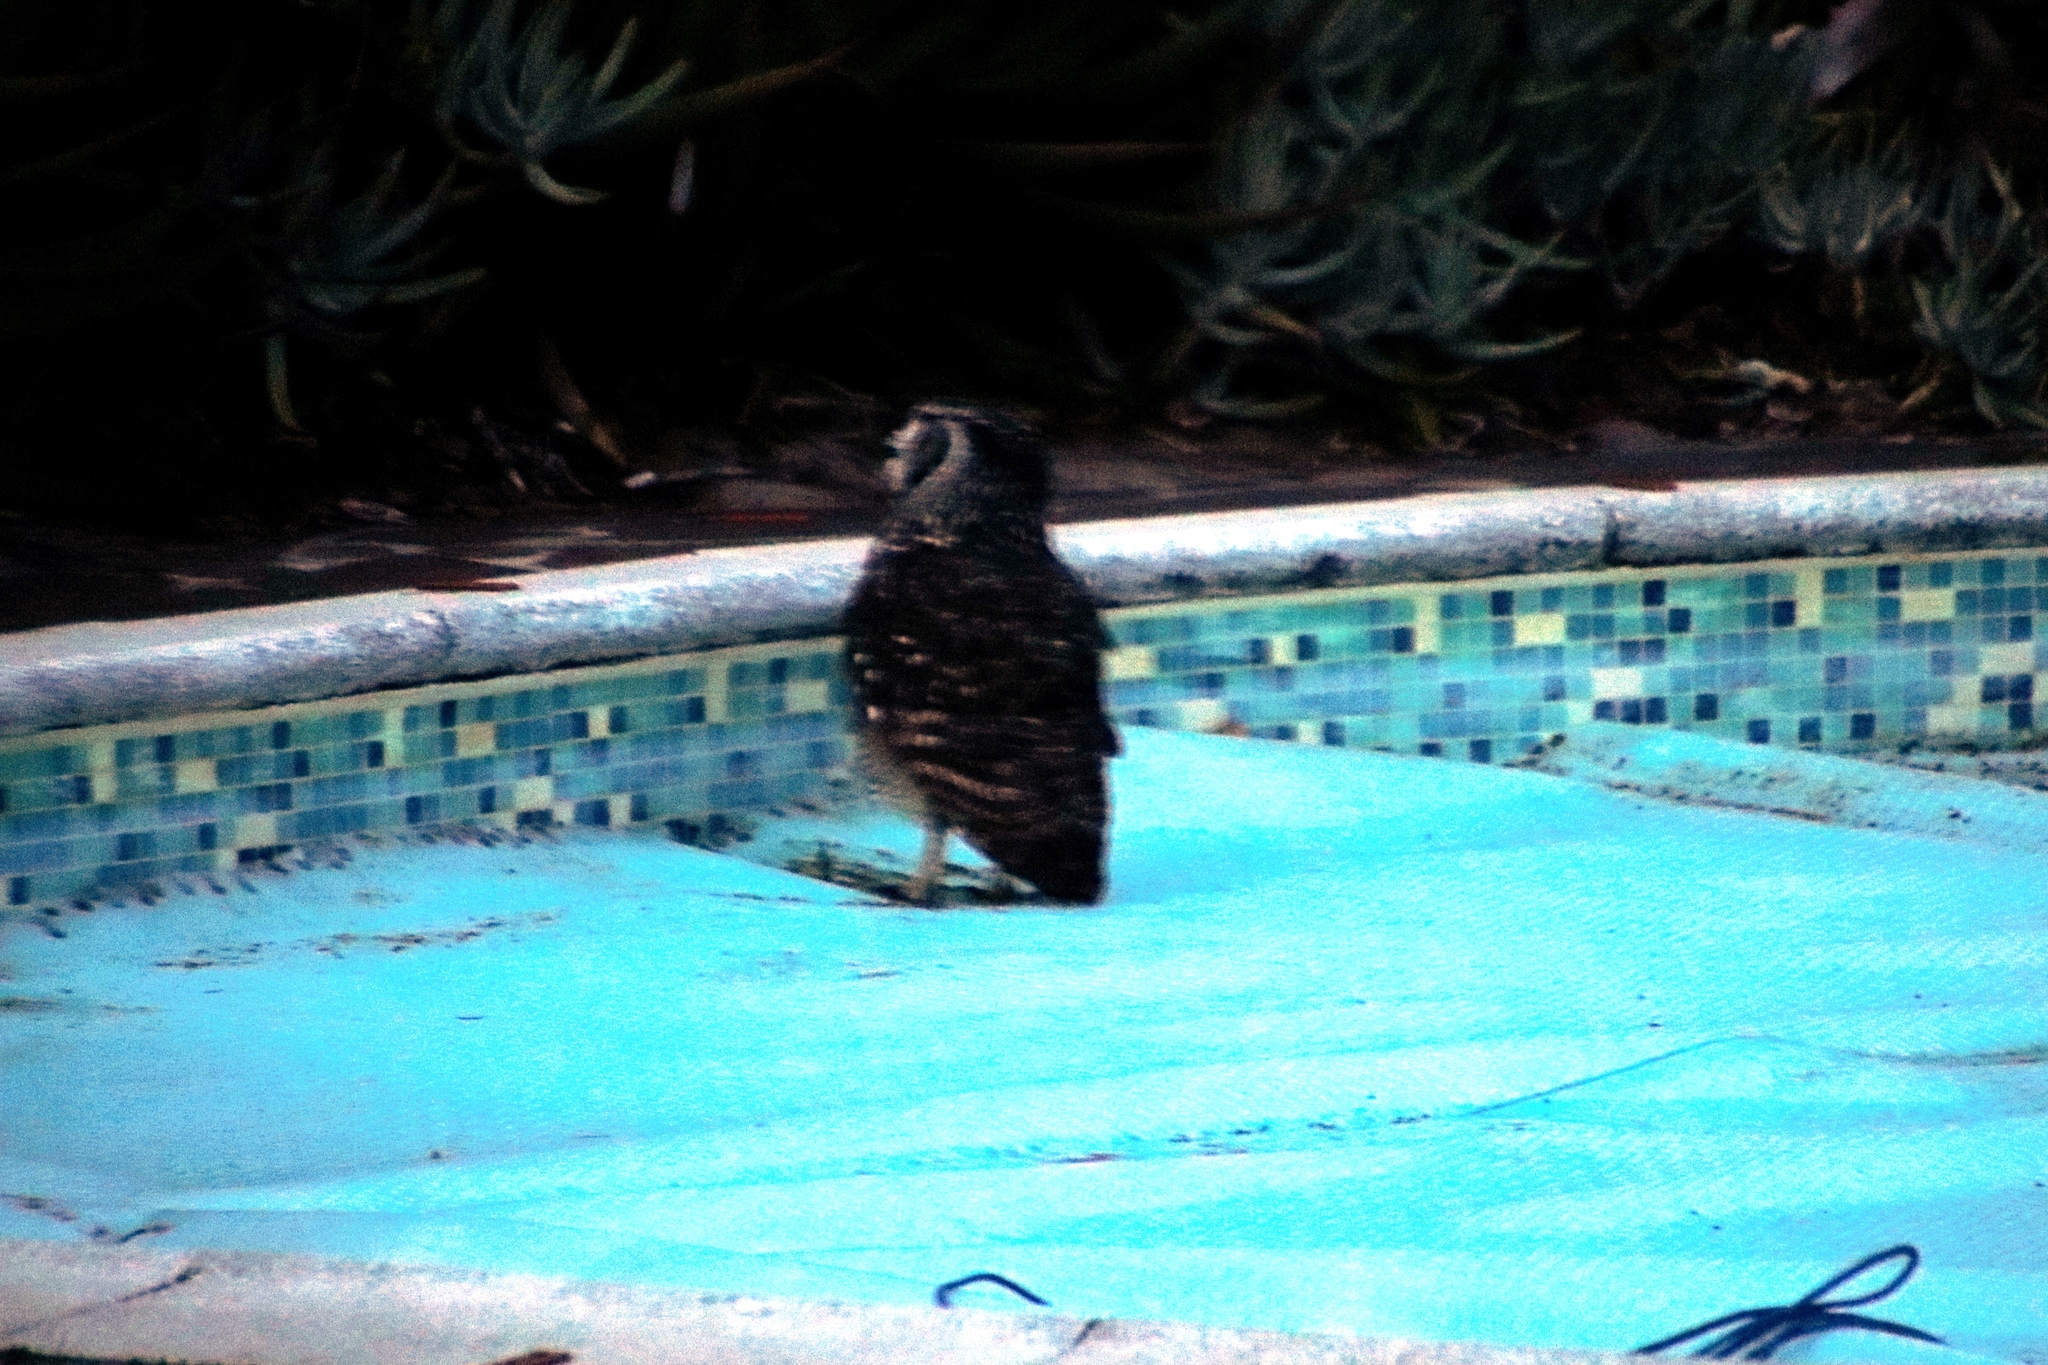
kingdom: Animalia
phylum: Chordata
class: Aves
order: Strigiformes
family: Strigidae
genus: Bubo
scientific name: Bubo africanus
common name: Spotted eagle-owl
